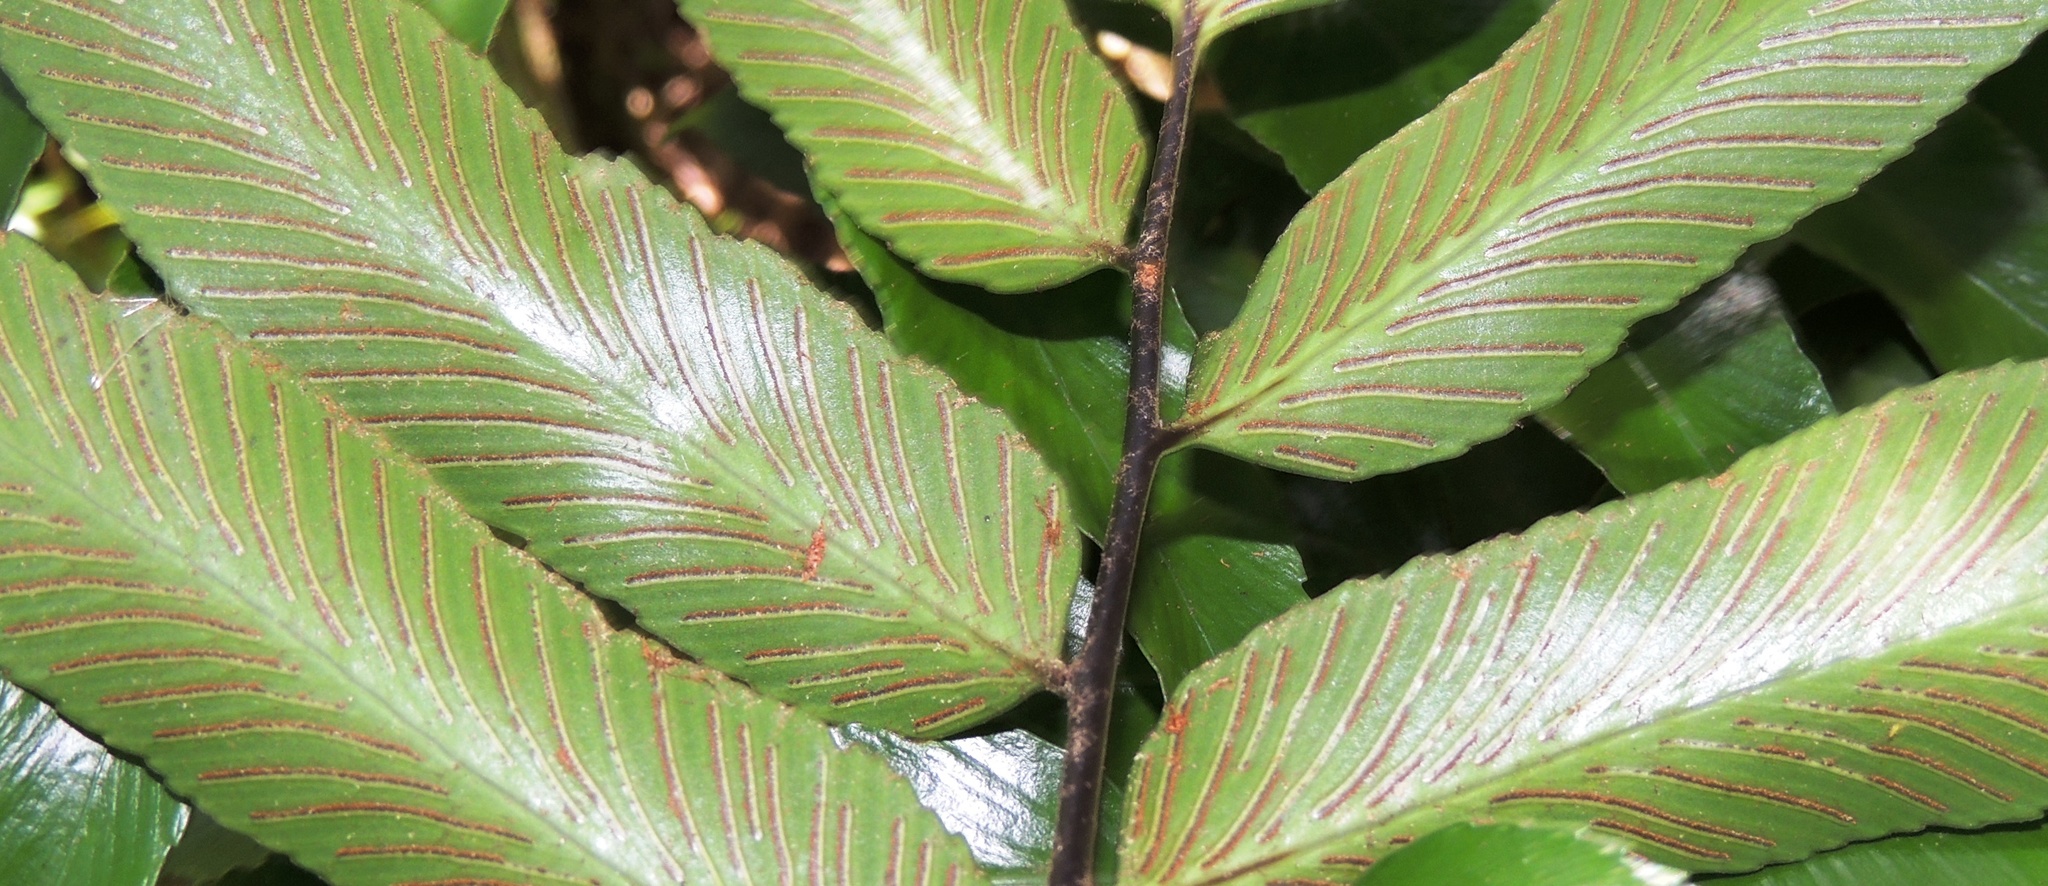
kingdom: Plantae
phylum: Tracheophyta
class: Polypodiopsida
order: Polypodiales
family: Aspleniaceae
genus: Asplenium
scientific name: Asplenium oblongifolium
